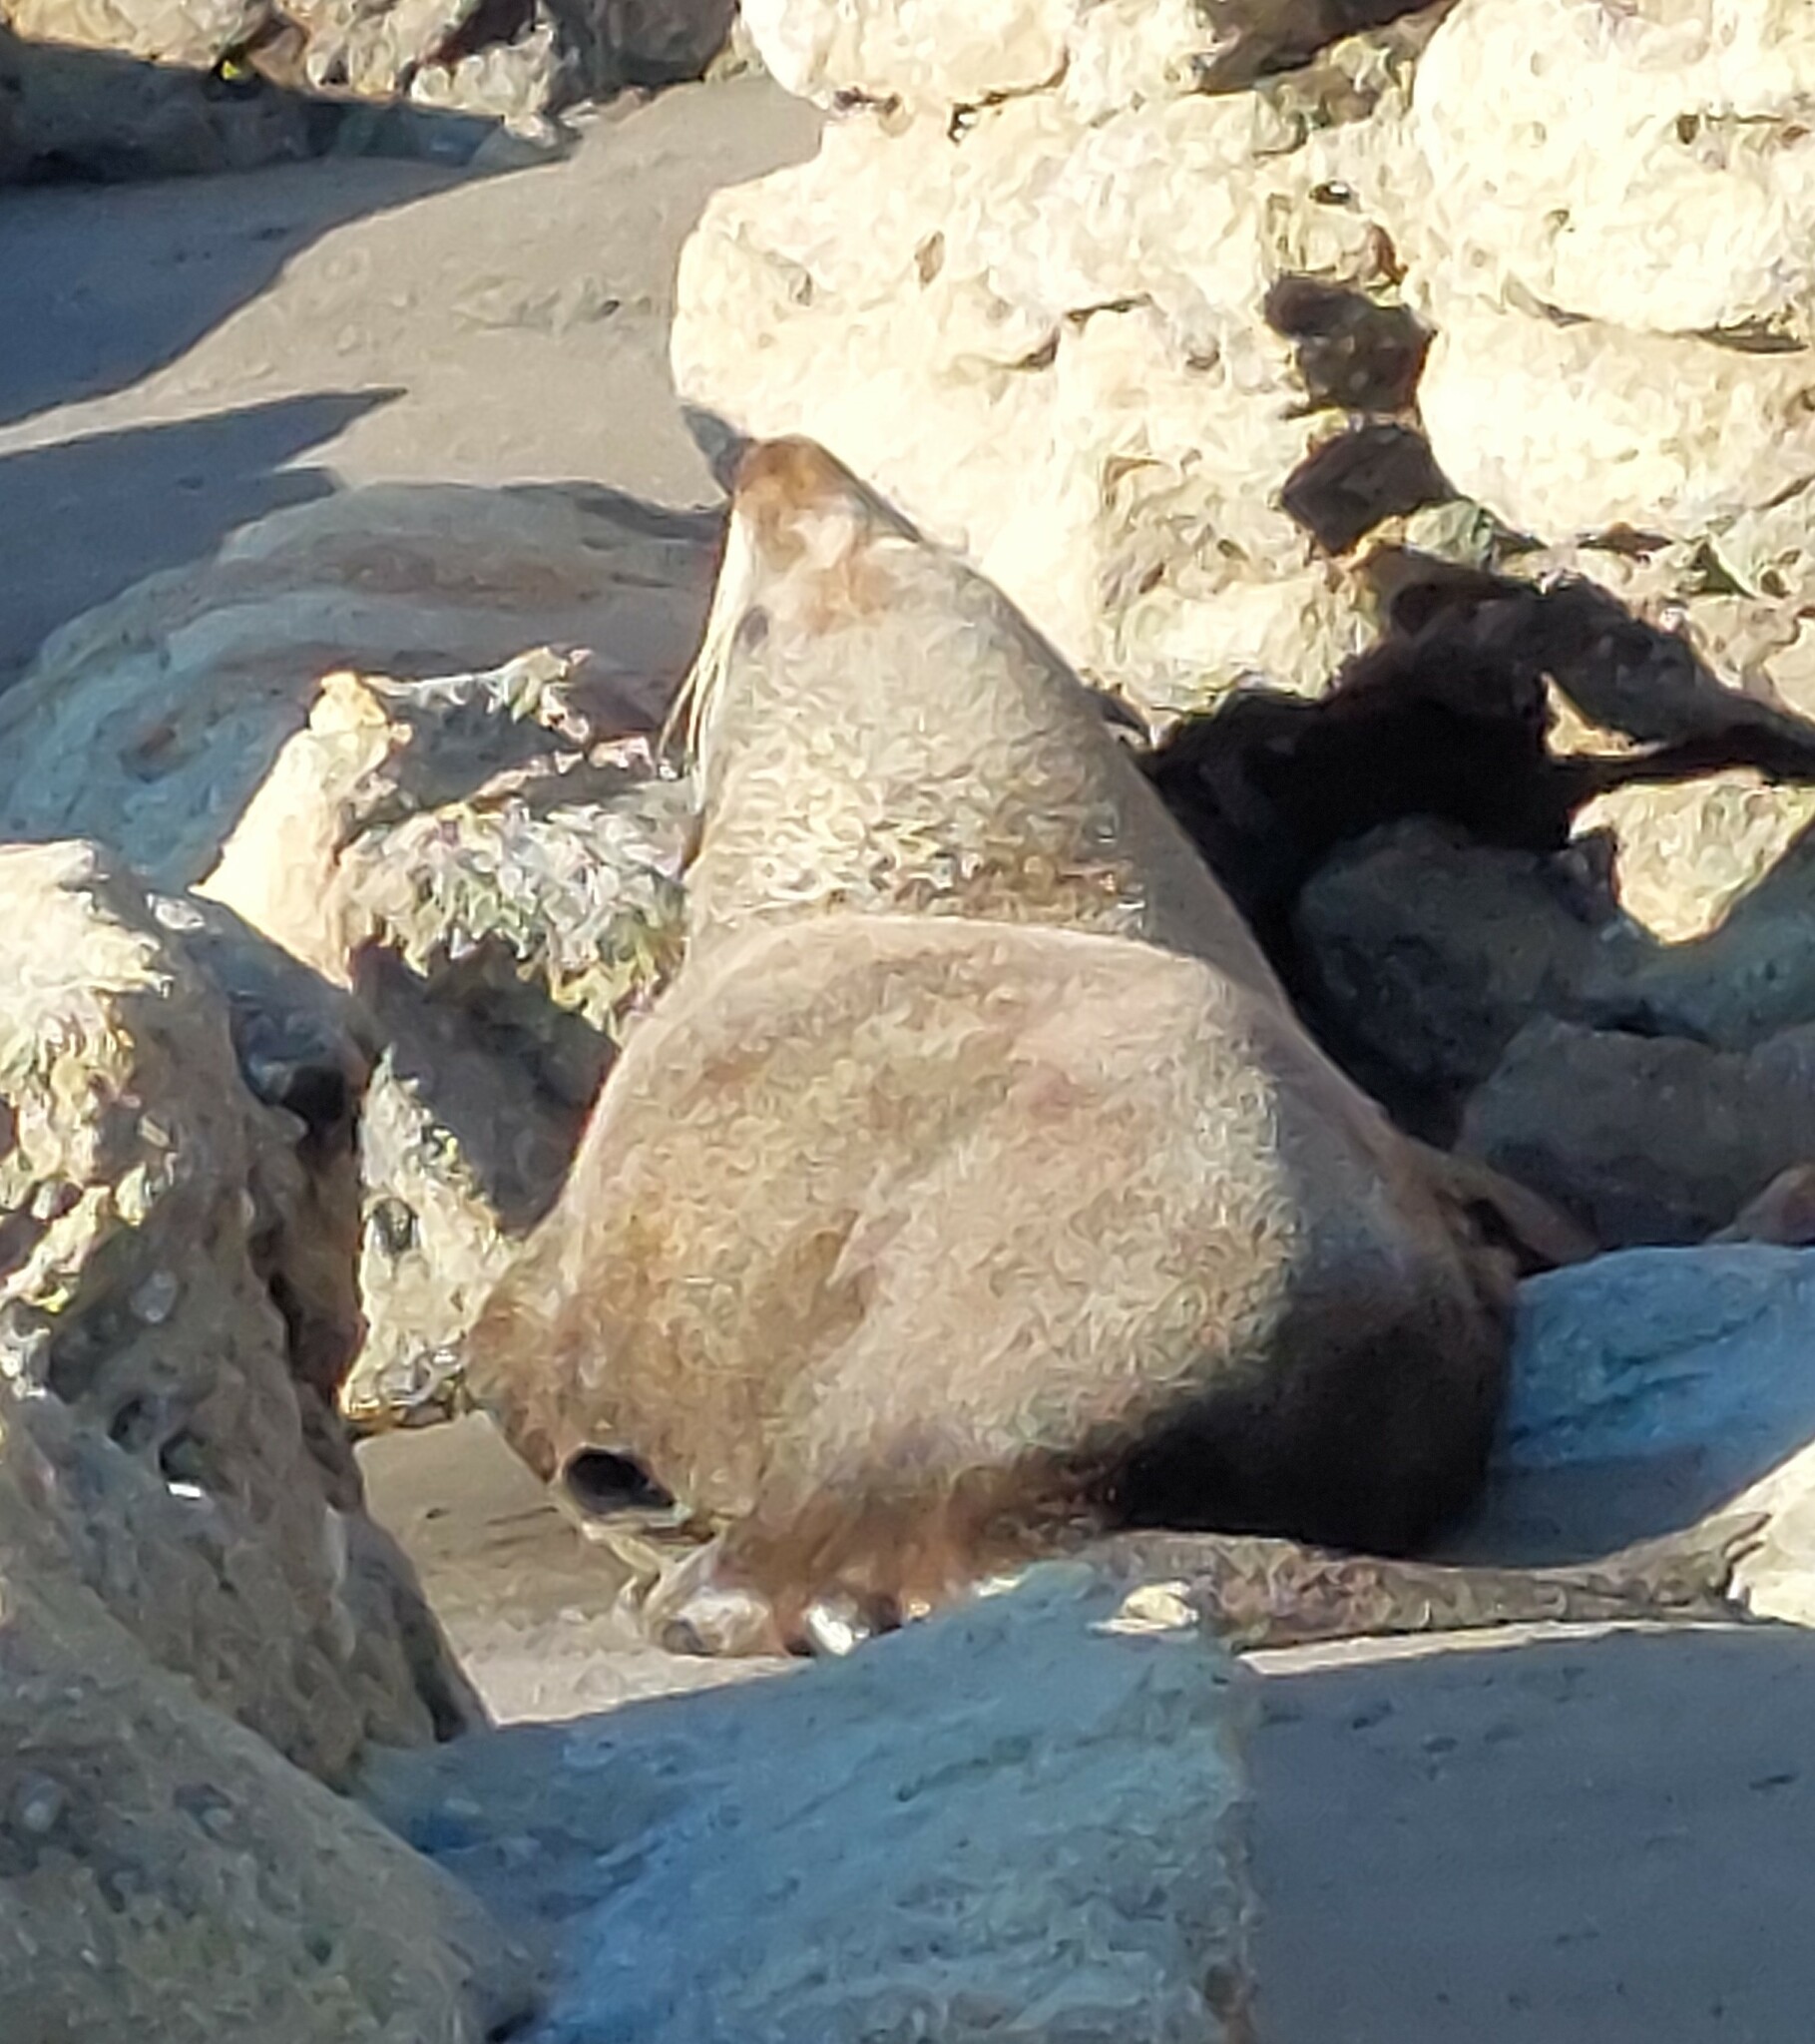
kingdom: Animalia
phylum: Chordata
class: Mammalia
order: Carnivora
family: Otariidae
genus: Arctocephalus
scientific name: Arctocephalus forsteri
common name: New zealand fur seal
